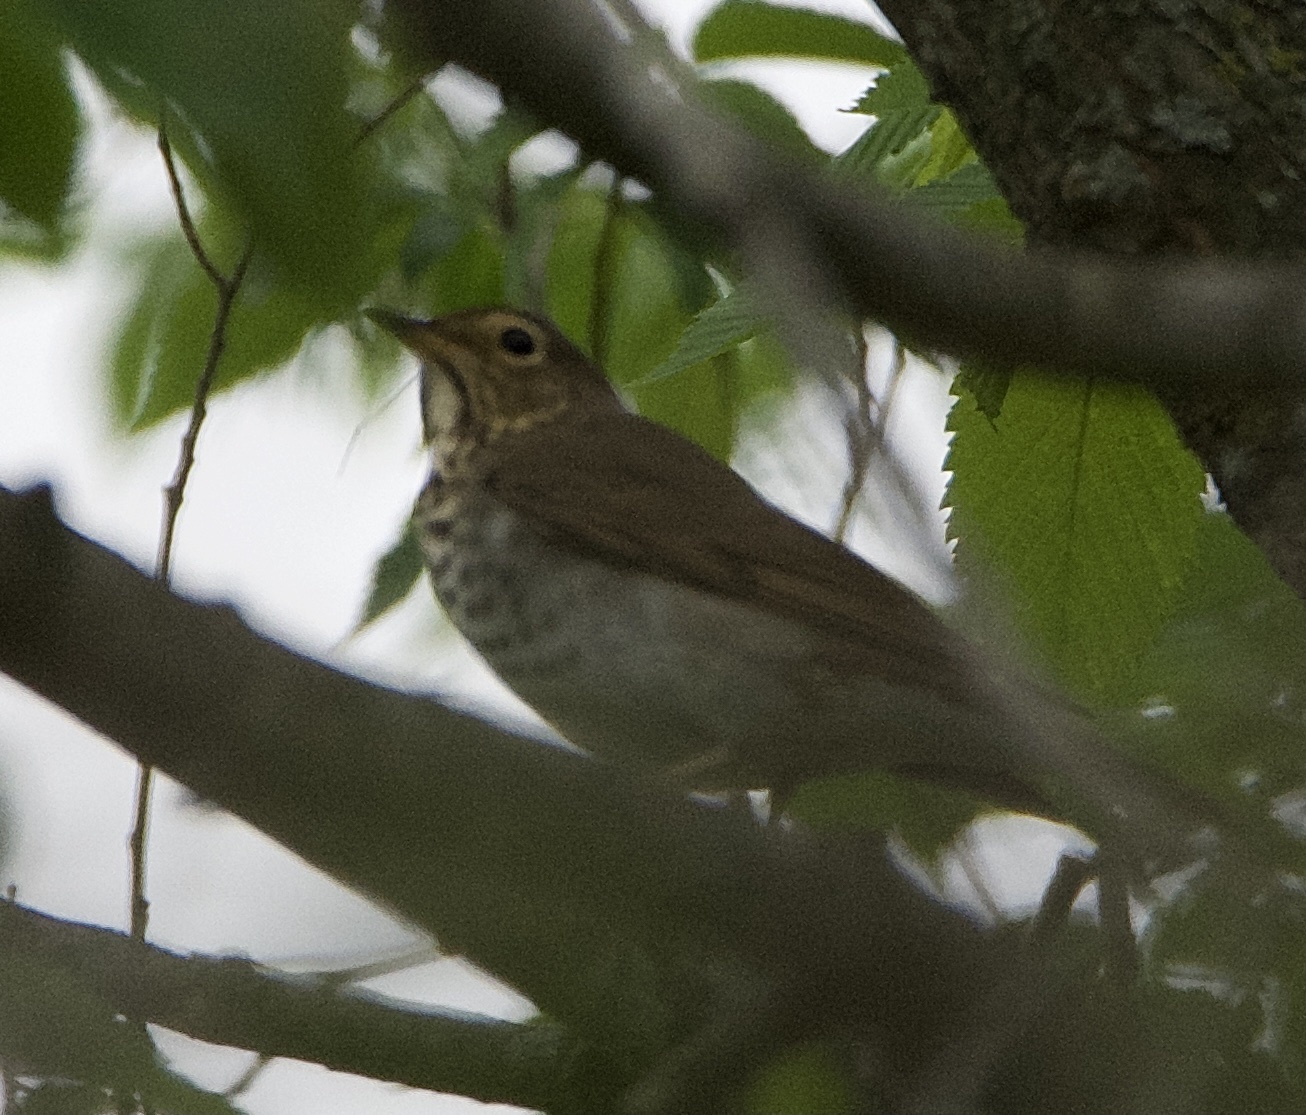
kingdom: Animalia
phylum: Chordata
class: Aves
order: Passeriformes
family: Turdidae
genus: Catharus
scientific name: Catharus ustulatus
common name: Swainson's thrush
